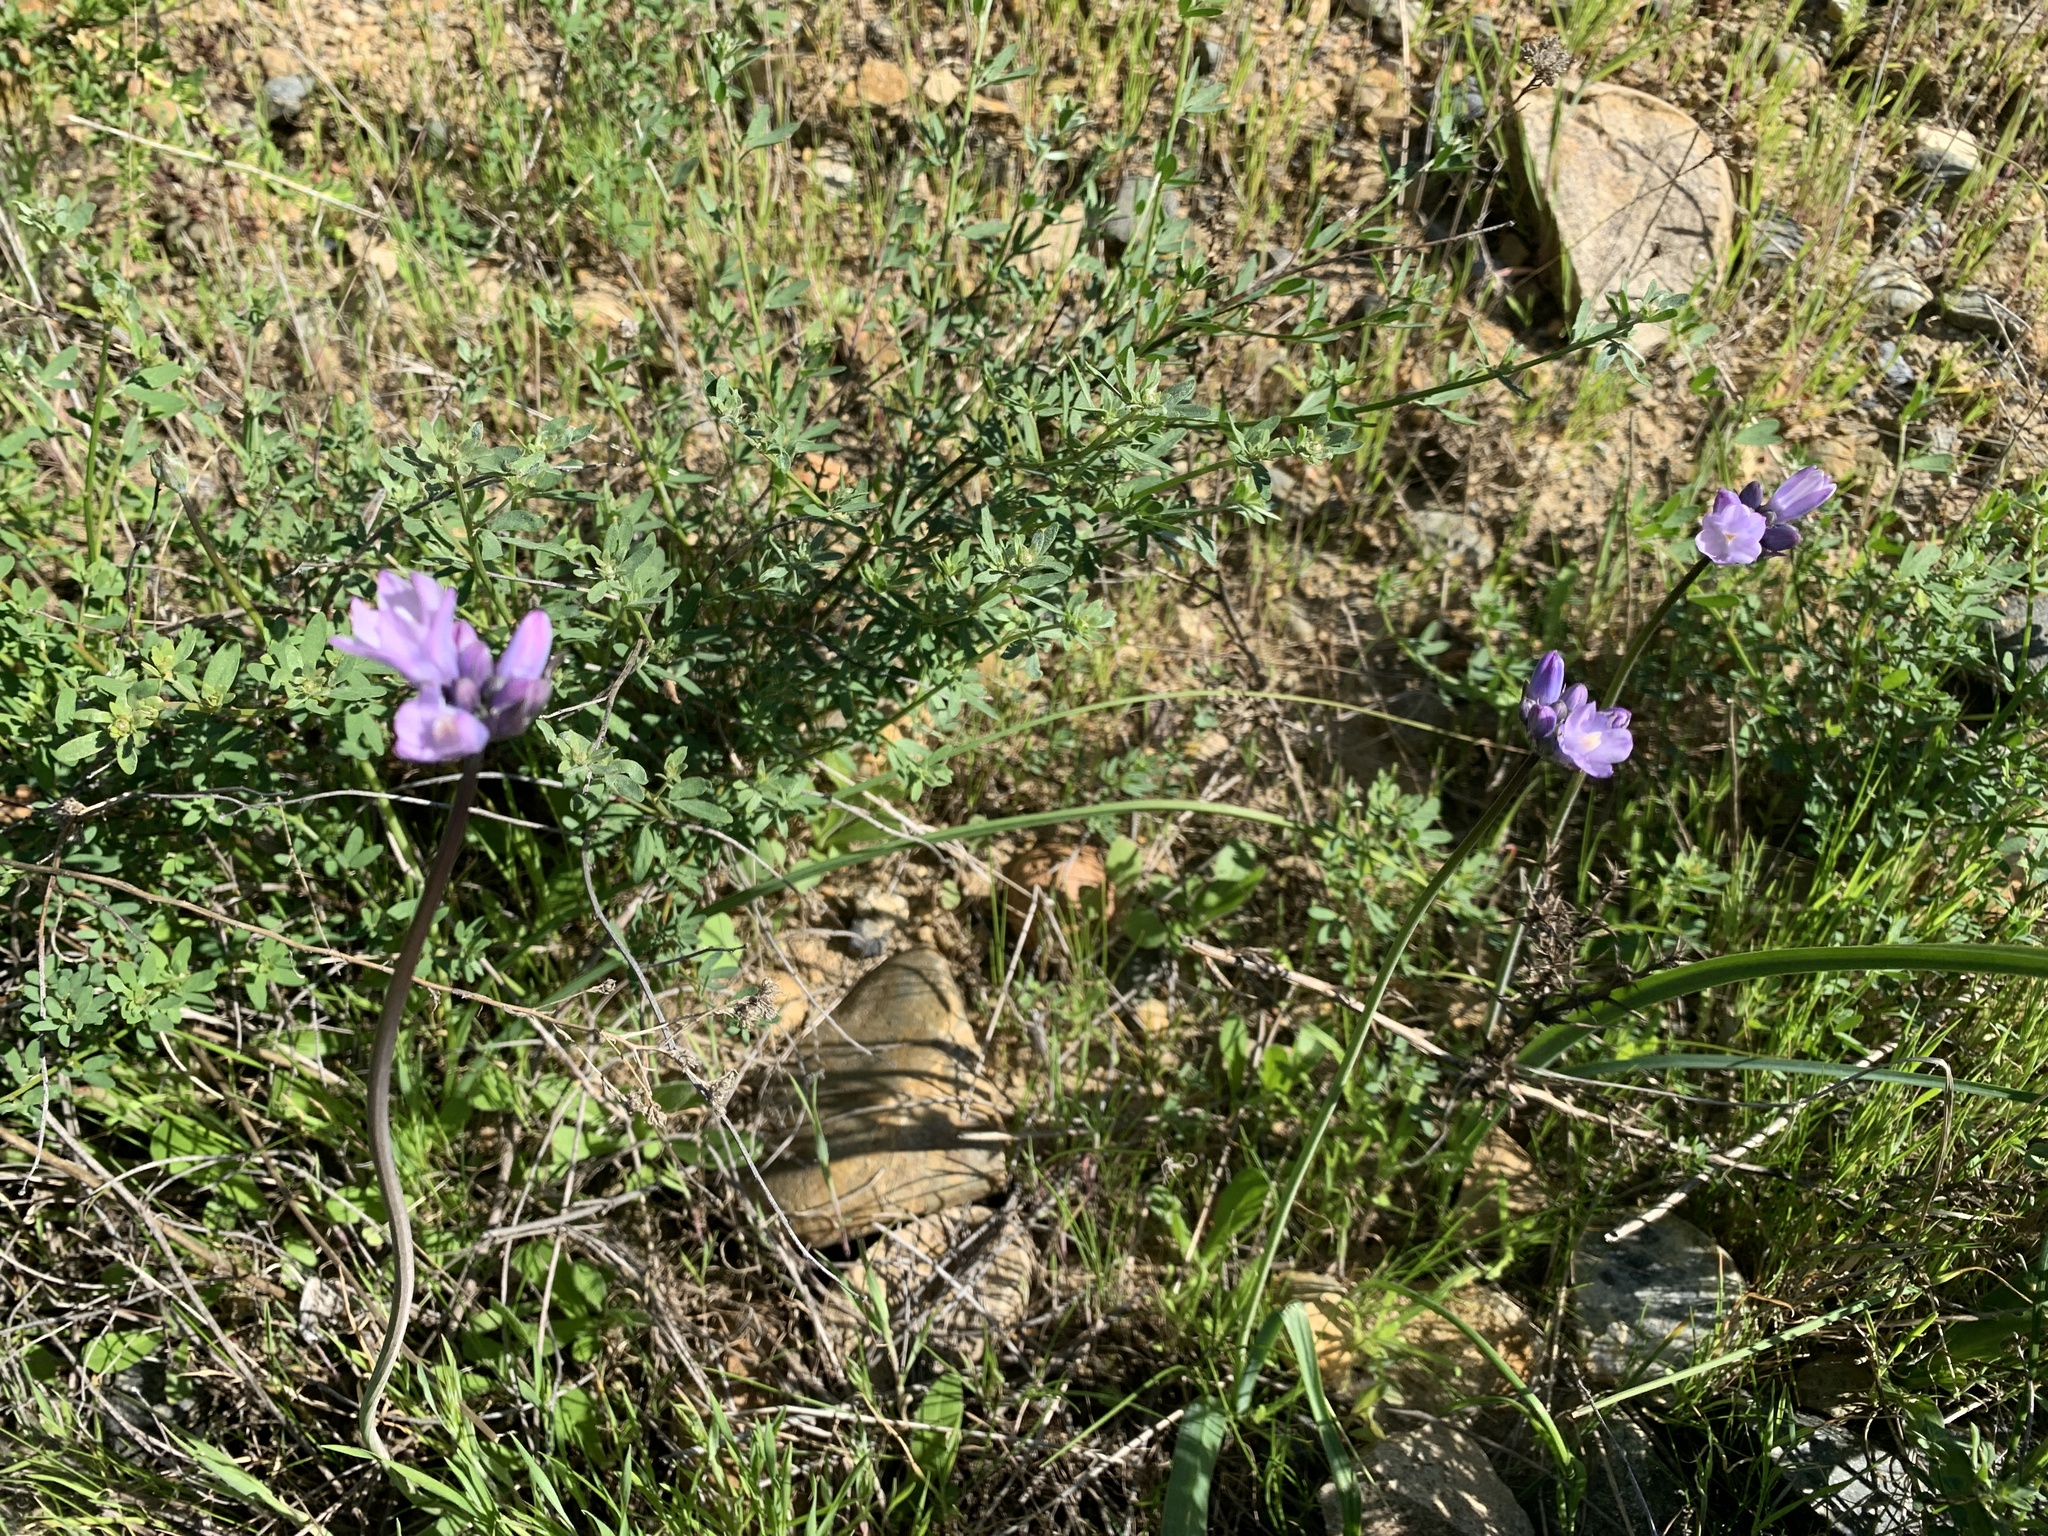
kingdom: Plantae
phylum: Tracheophyta
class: Liliopsida
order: Asparagales
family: Asparagaceae
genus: Dipterostemon
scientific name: Dipterostemon capitatus
